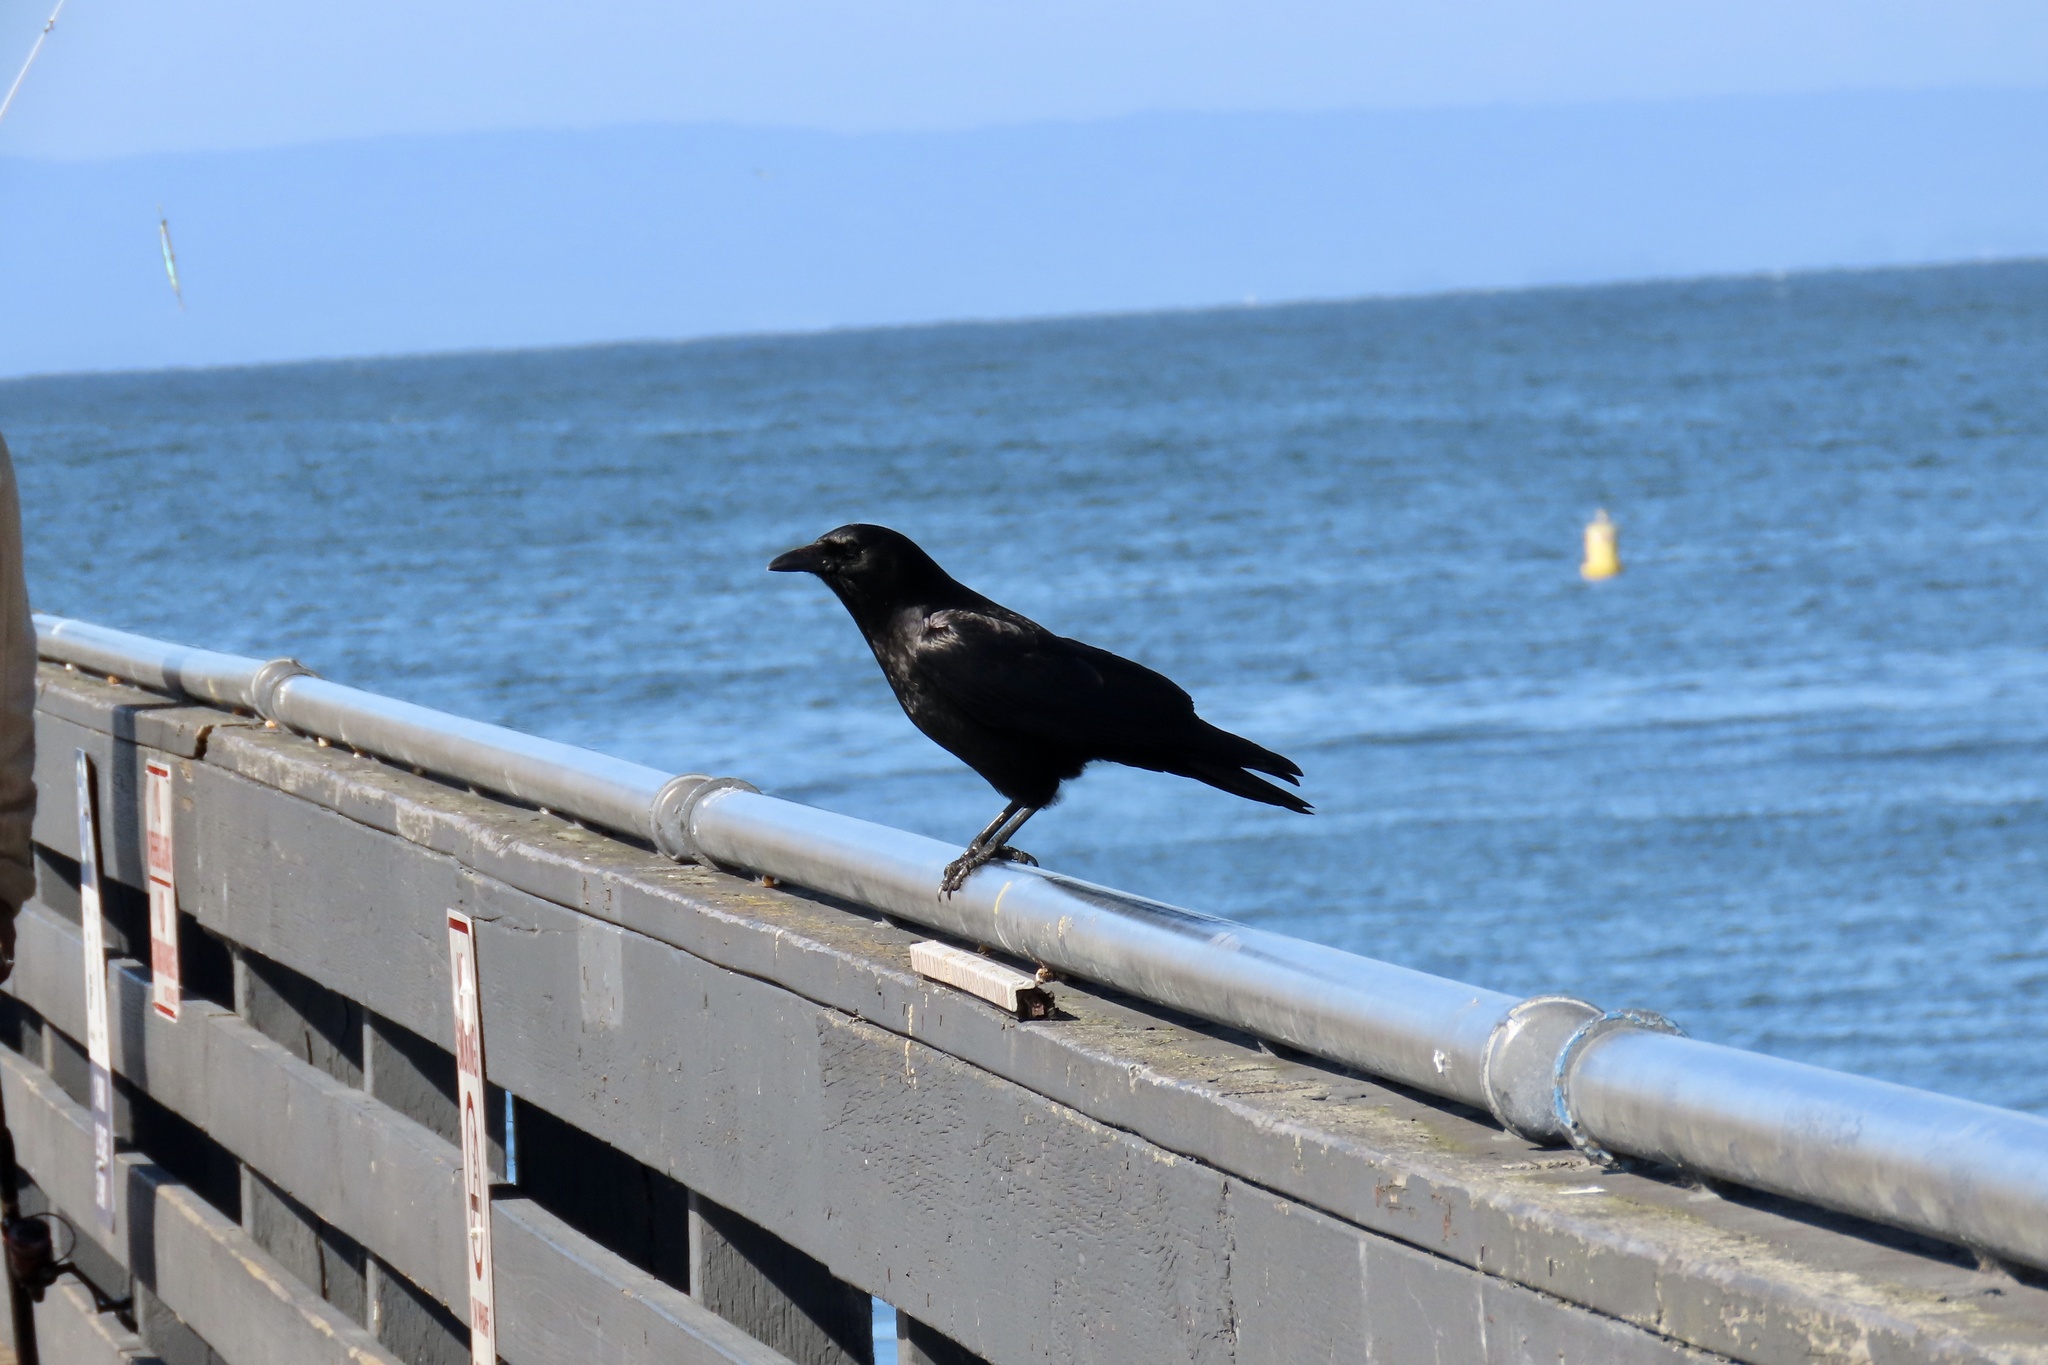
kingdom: Animalia
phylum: Chordata
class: Aves
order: Passeriformes
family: Corvidae
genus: Corvus
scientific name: Corvus brachyrhynchos
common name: American crow
